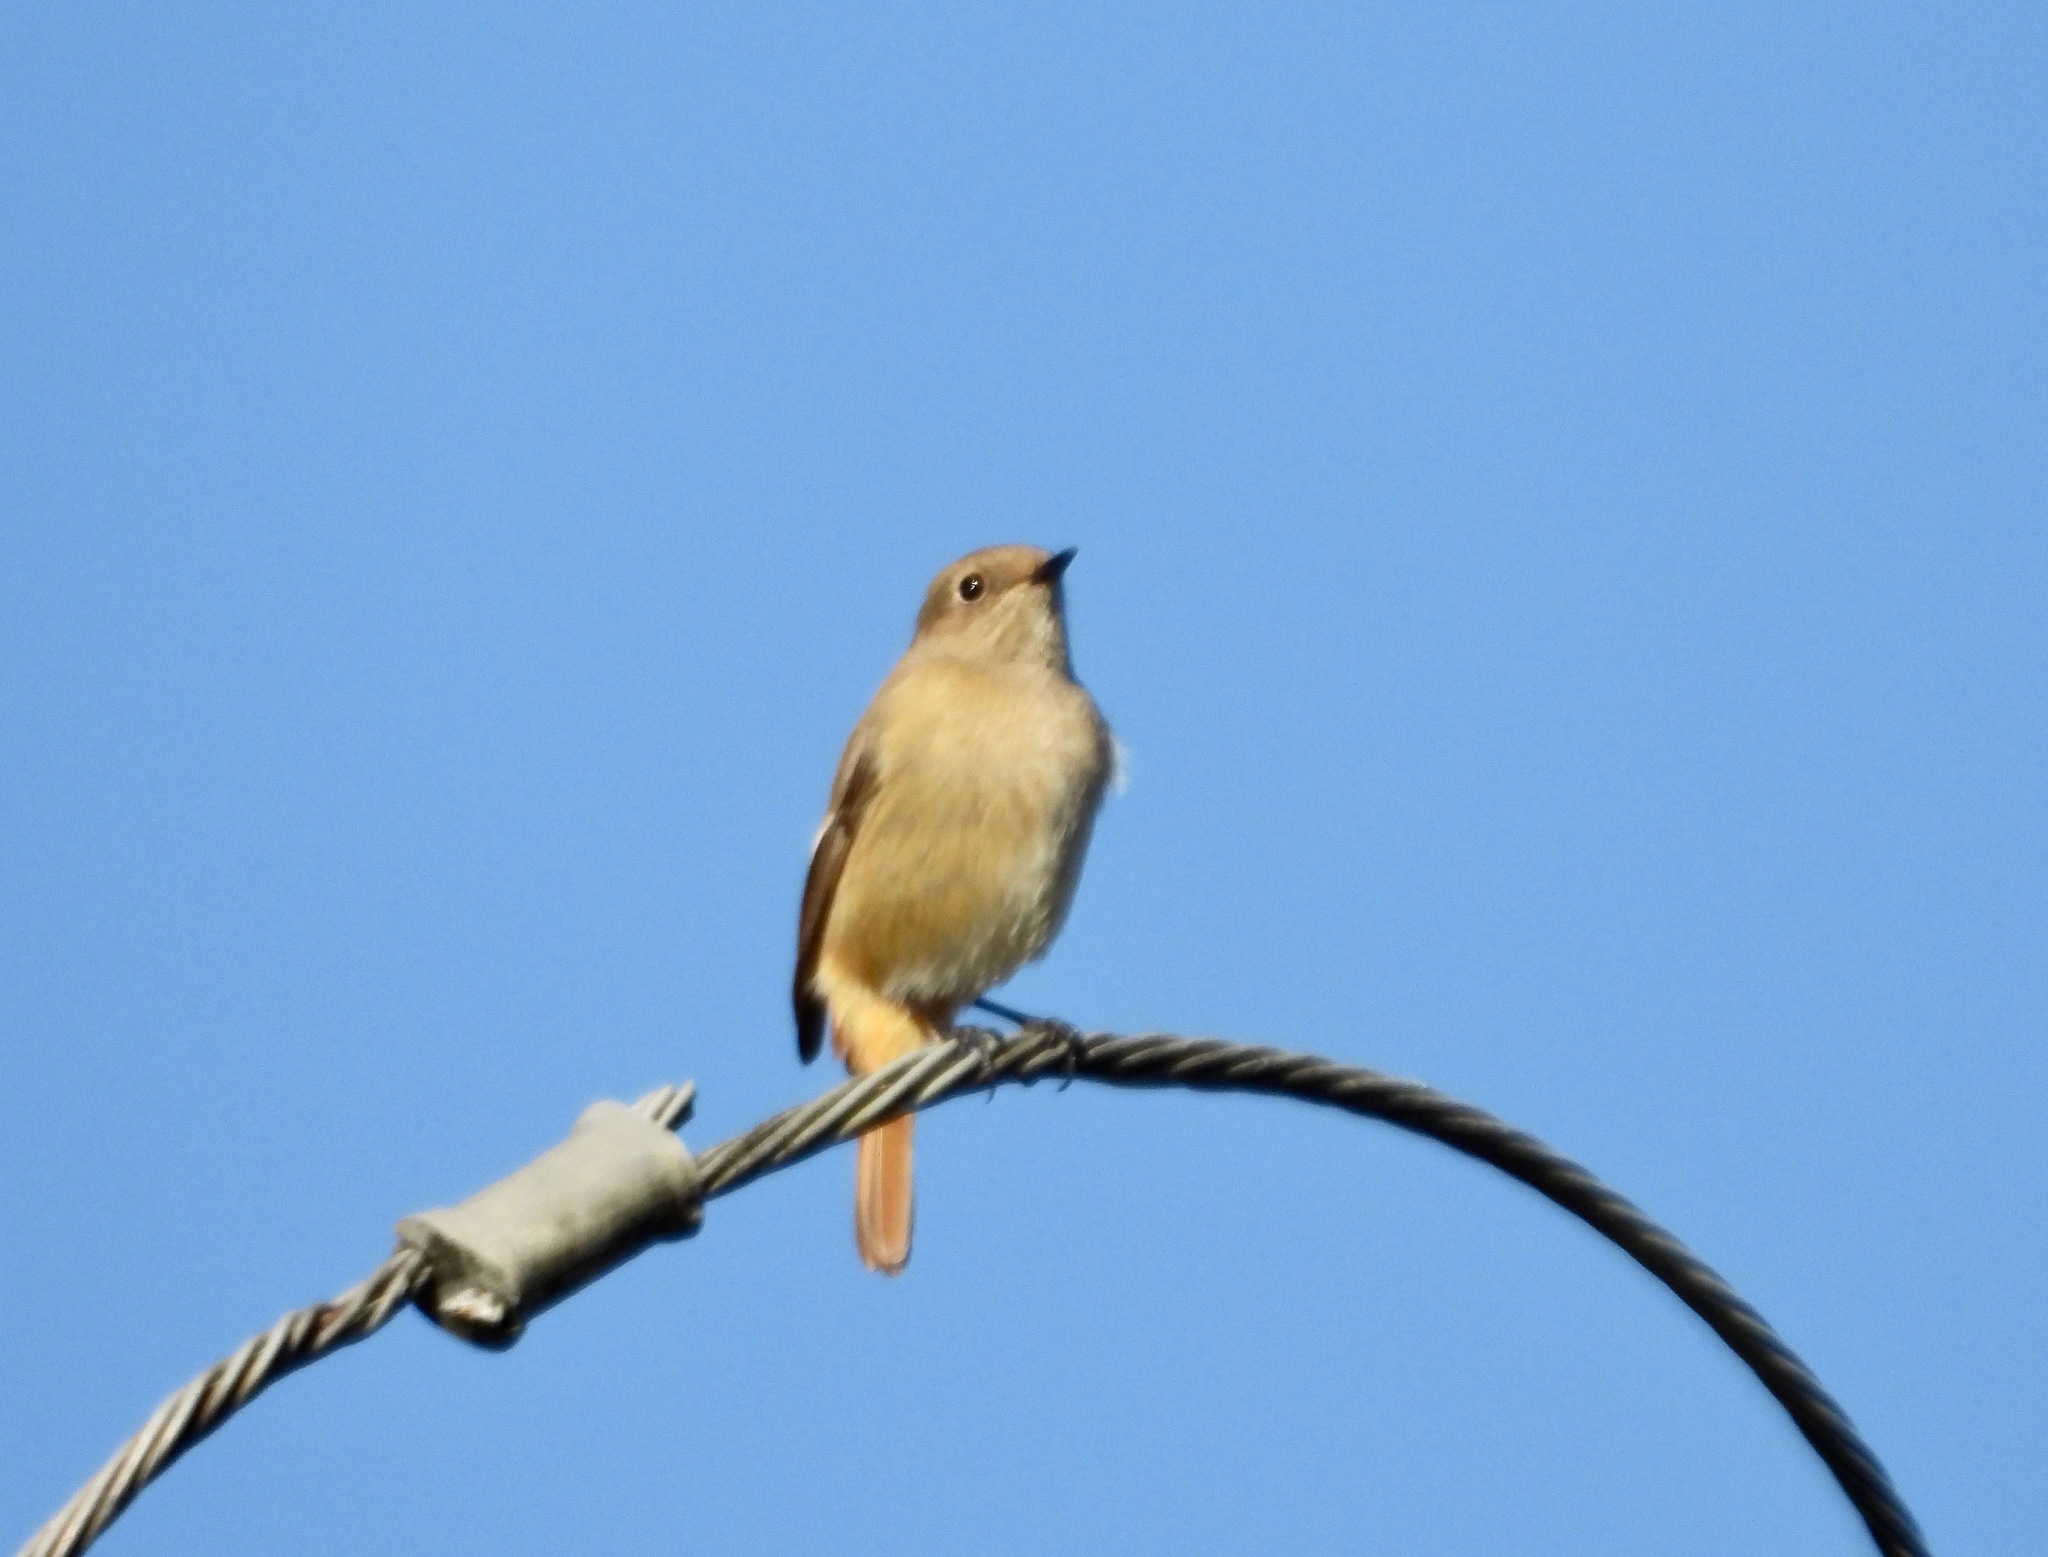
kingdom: Animalia
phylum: Chordata
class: Aves
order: Passeriformes
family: Muscicapidae
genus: Phoenicurus
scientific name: Phoenicurus auroreus
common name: Daurian redstart
